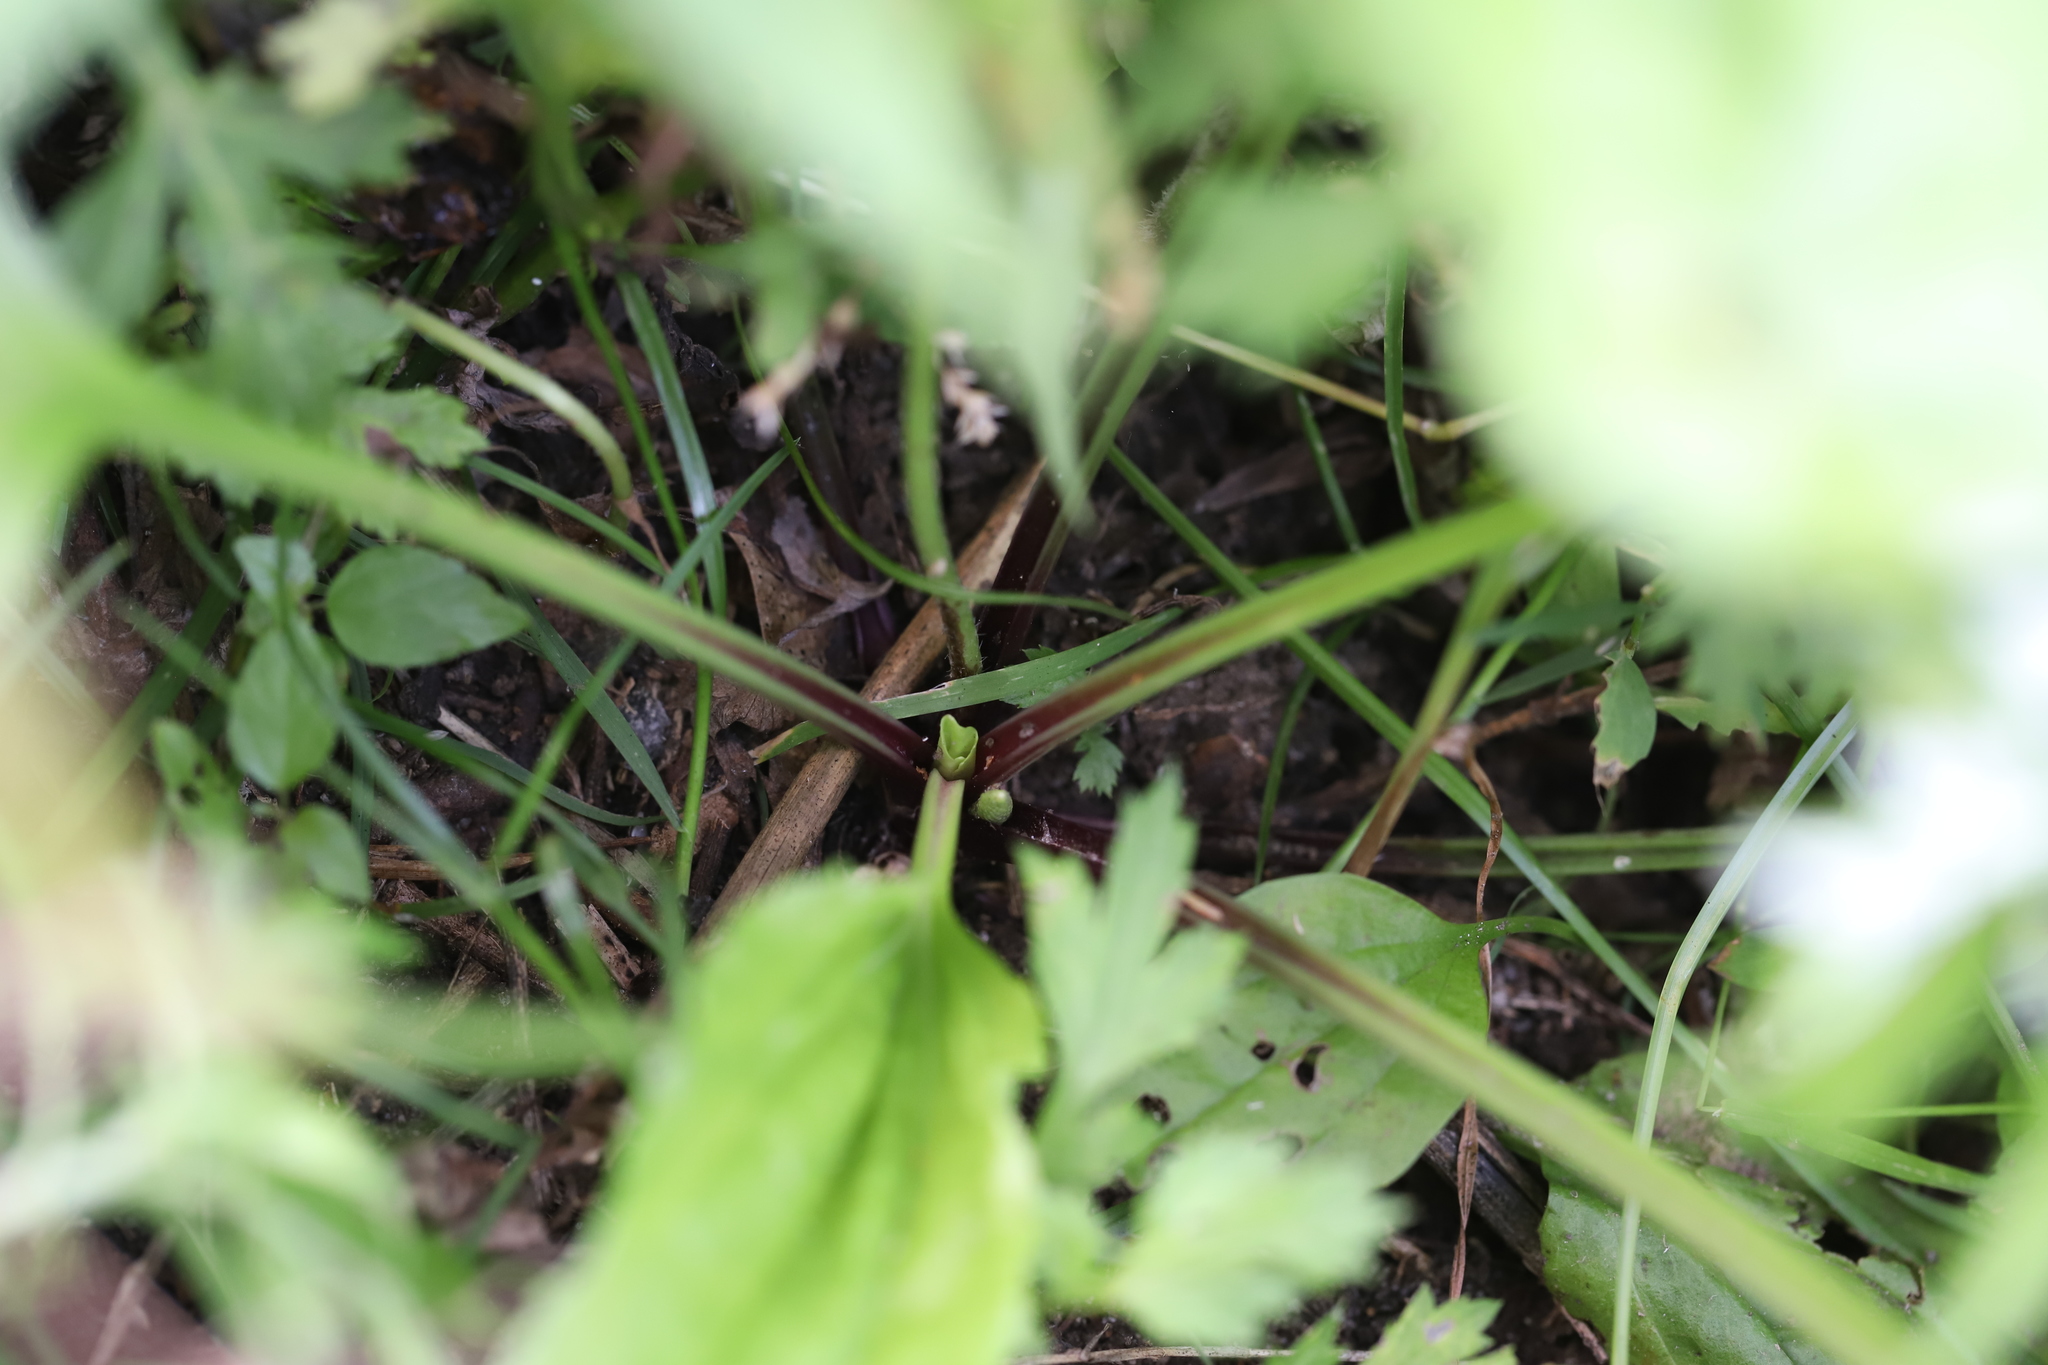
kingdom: Plantae
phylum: Tracheophyta
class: Magnoliopsida
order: Lamiales
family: Plantaginaceae
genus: Plantago
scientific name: Plantago rugelii
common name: American plantain
